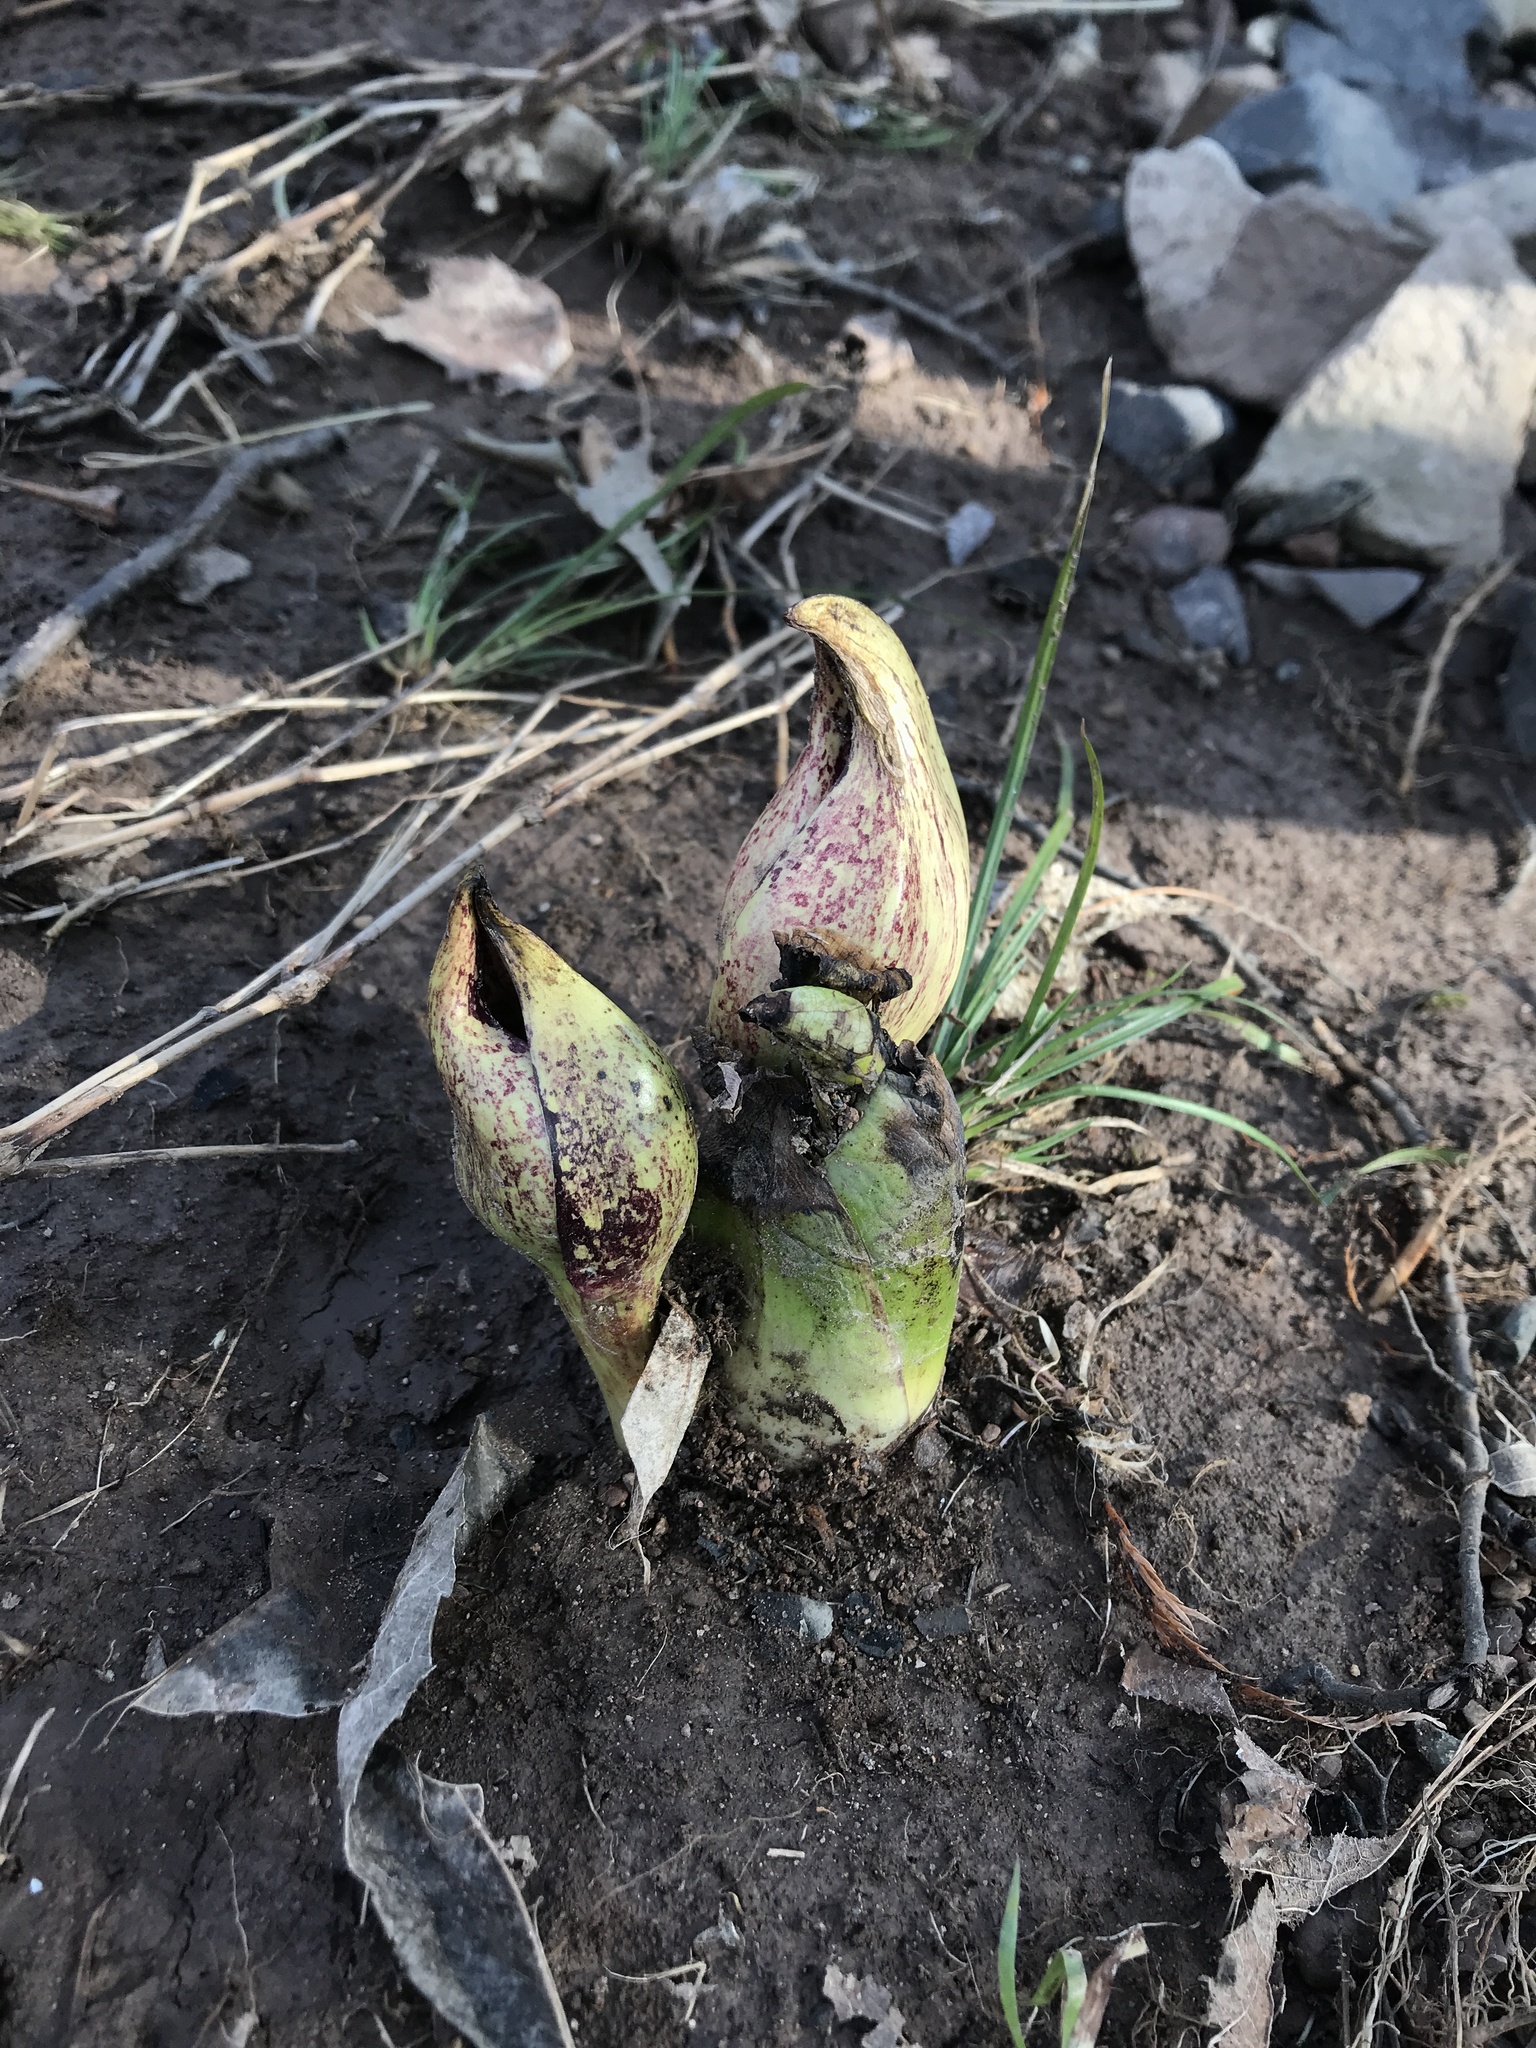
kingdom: Plantae
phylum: Tracheophyta
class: Liliopsida
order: Alismatales
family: Araceae
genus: Symplocarpus
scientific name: Symplocarpus foetidus
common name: Eastern skunk cabbage
